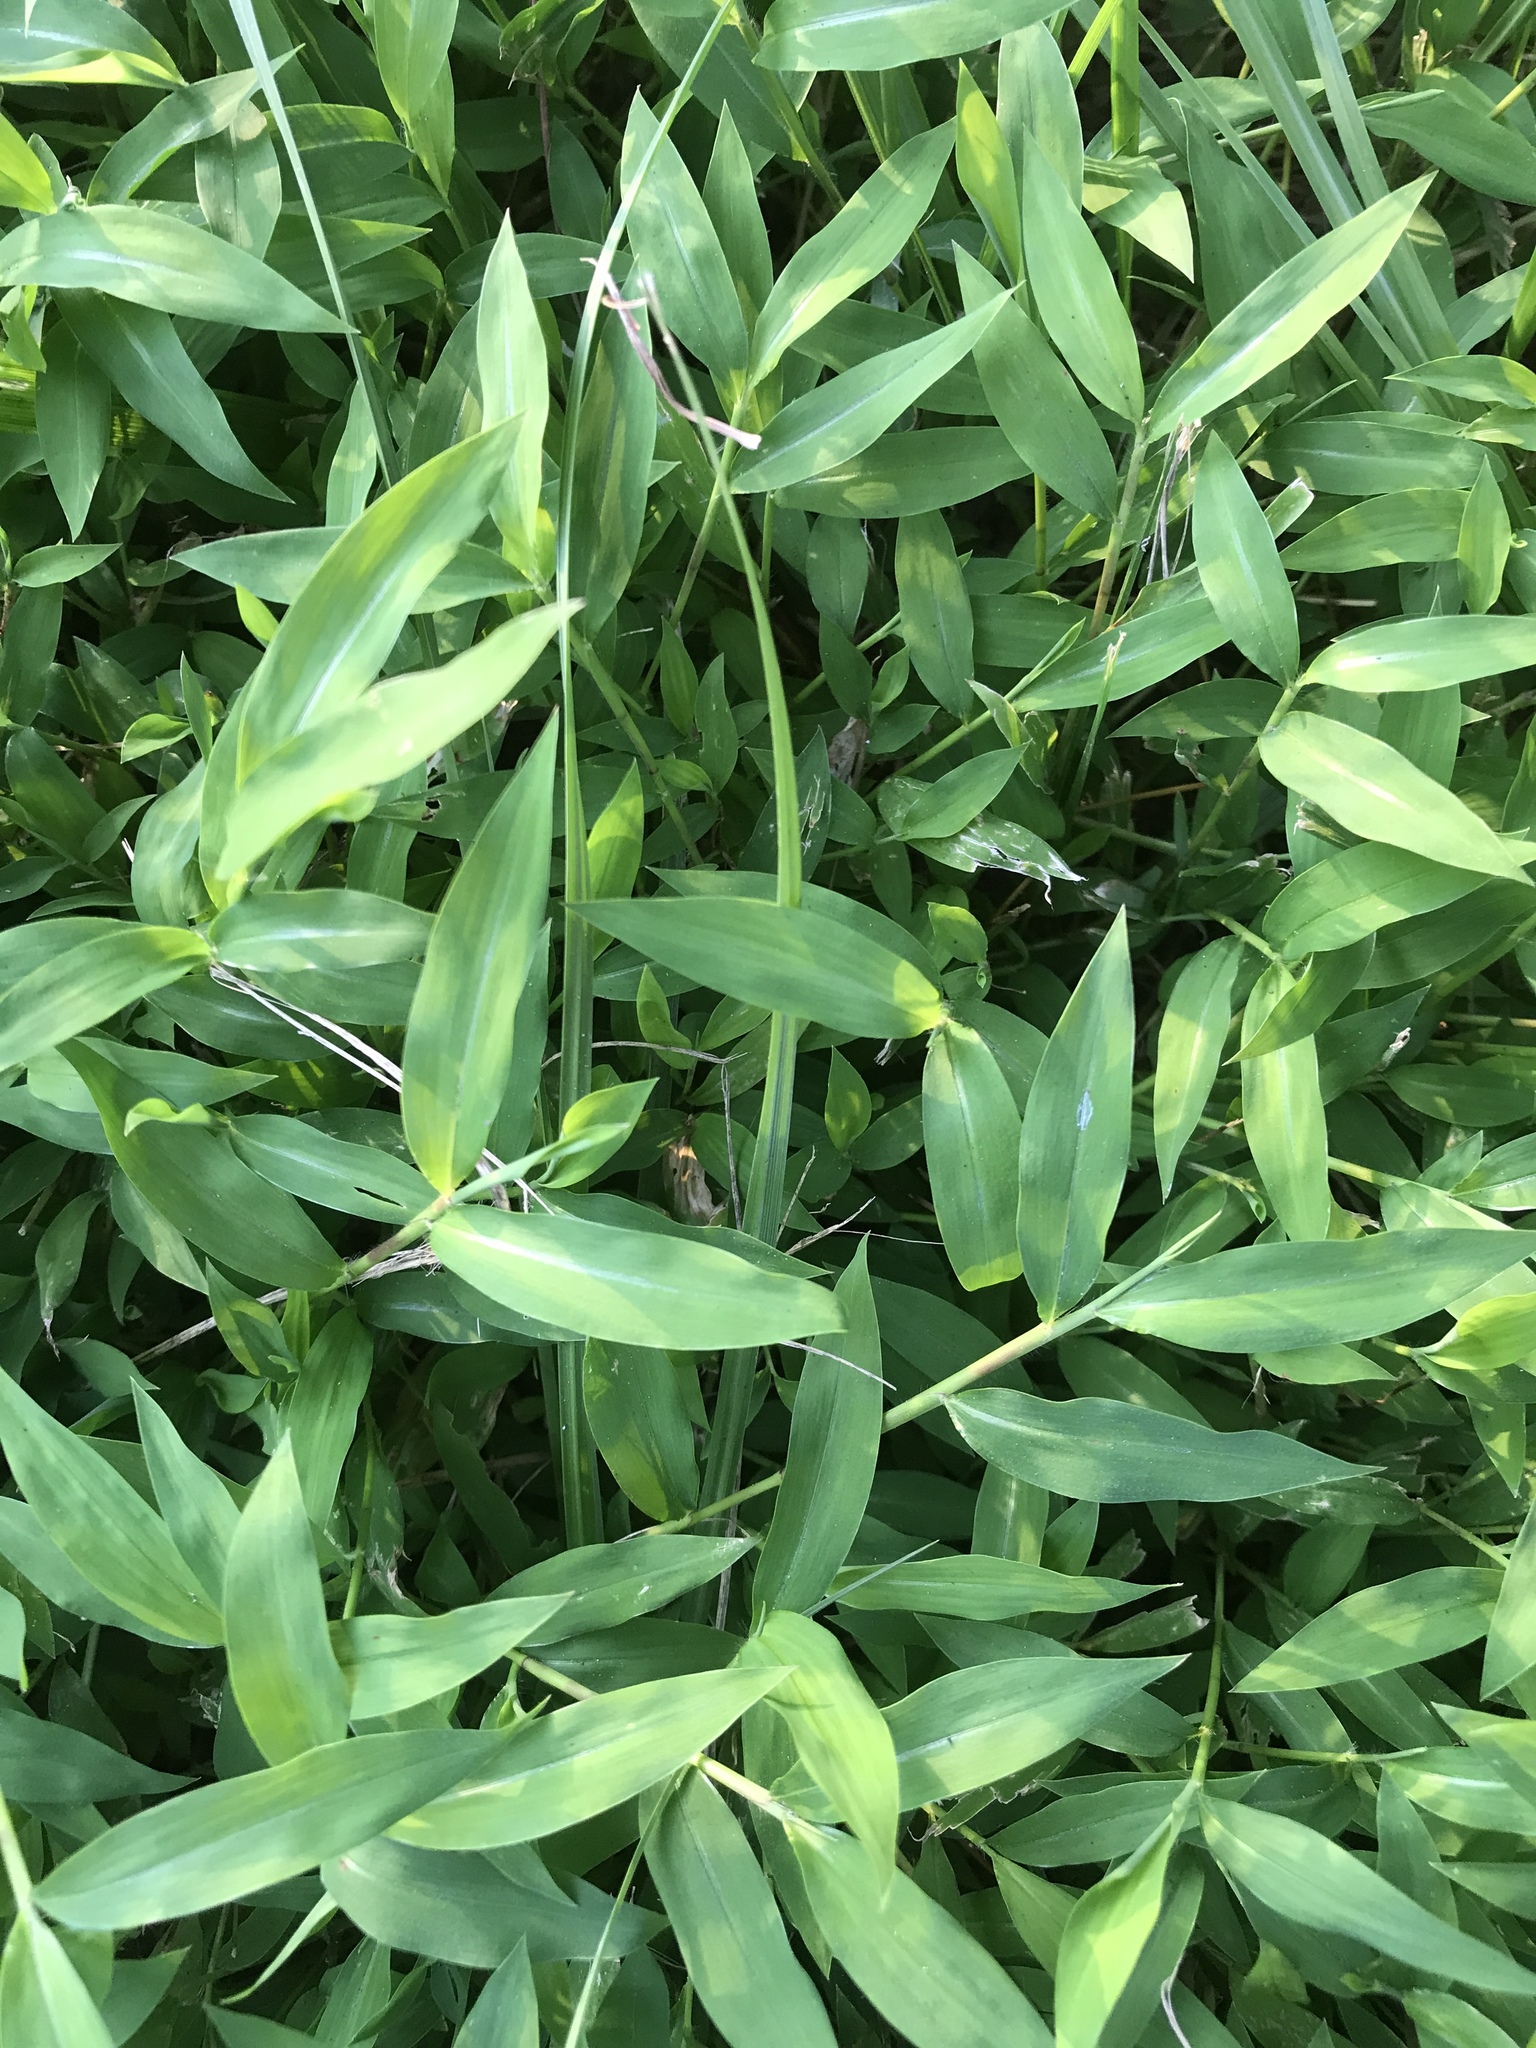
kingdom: Plantae
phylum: Tracheophyta
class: Liliopsida
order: Poales
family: Poaceae
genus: Microstegium
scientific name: Microstegium vimineum
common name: Japanese stiltgrass
